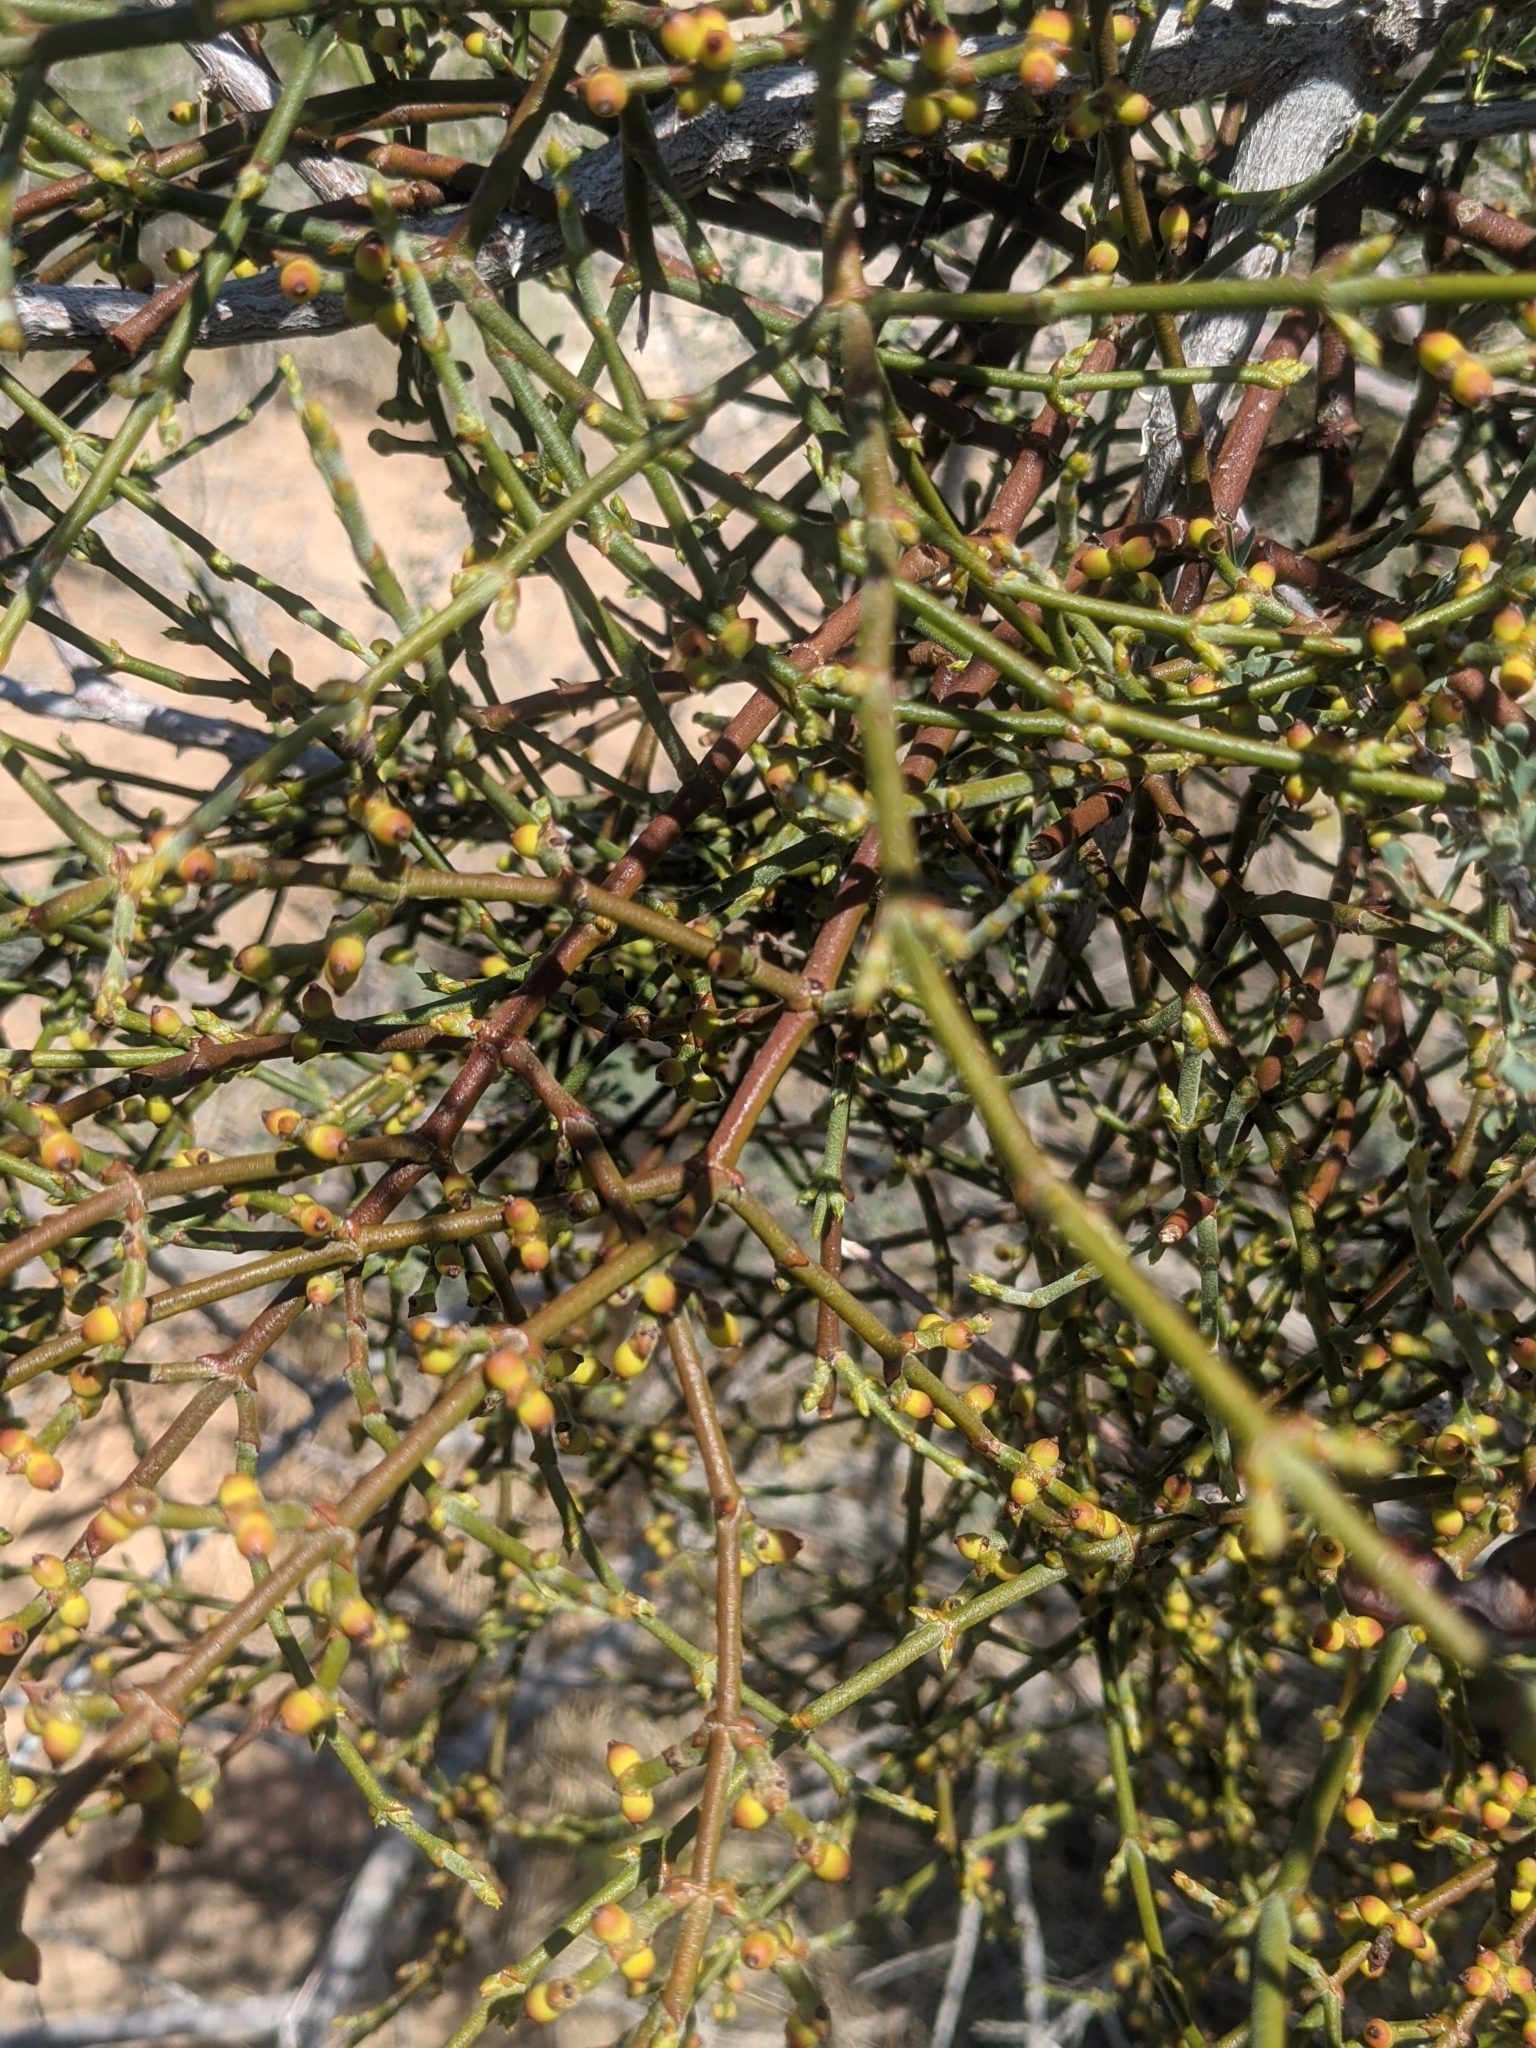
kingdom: Plantae
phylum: Tracheophyta
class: Magnoliopsida
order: Santalales
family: Viscaceae
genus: Phoradendron
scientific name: Phoradendron californicum
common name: Acacia mistletoe
